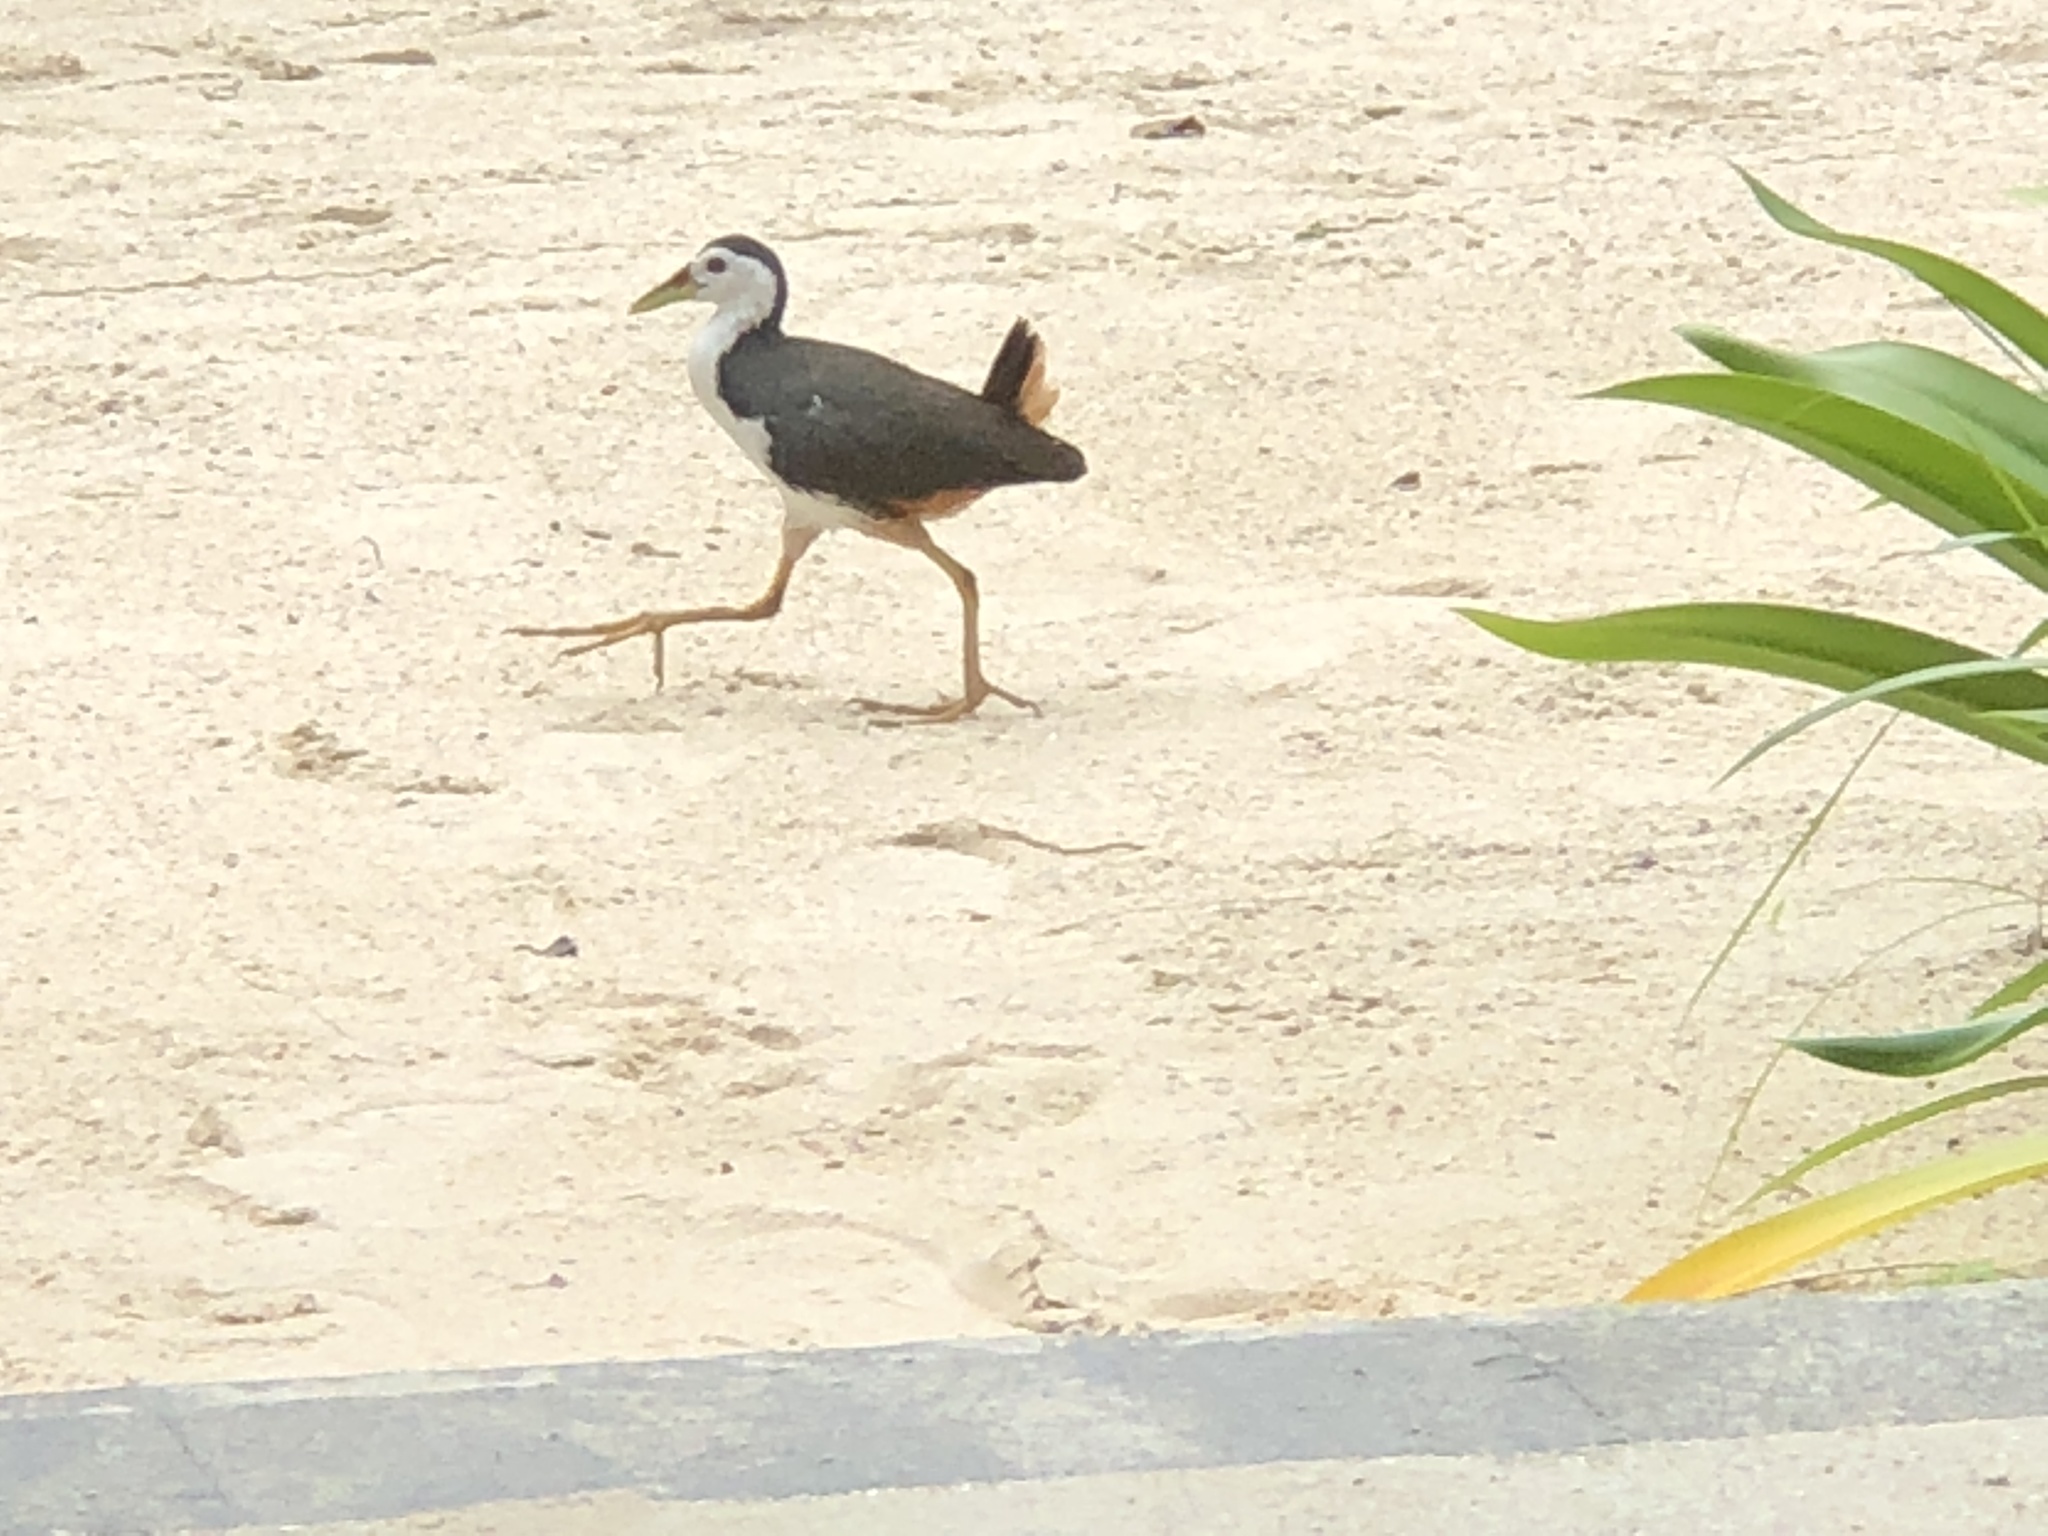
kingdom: Animalia
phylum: Chordata
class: Aves
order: Gruiformes
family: Rallidae
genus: Amaurornis
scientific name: Amaurornis phoenicurus
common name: White-breasted waterhen
